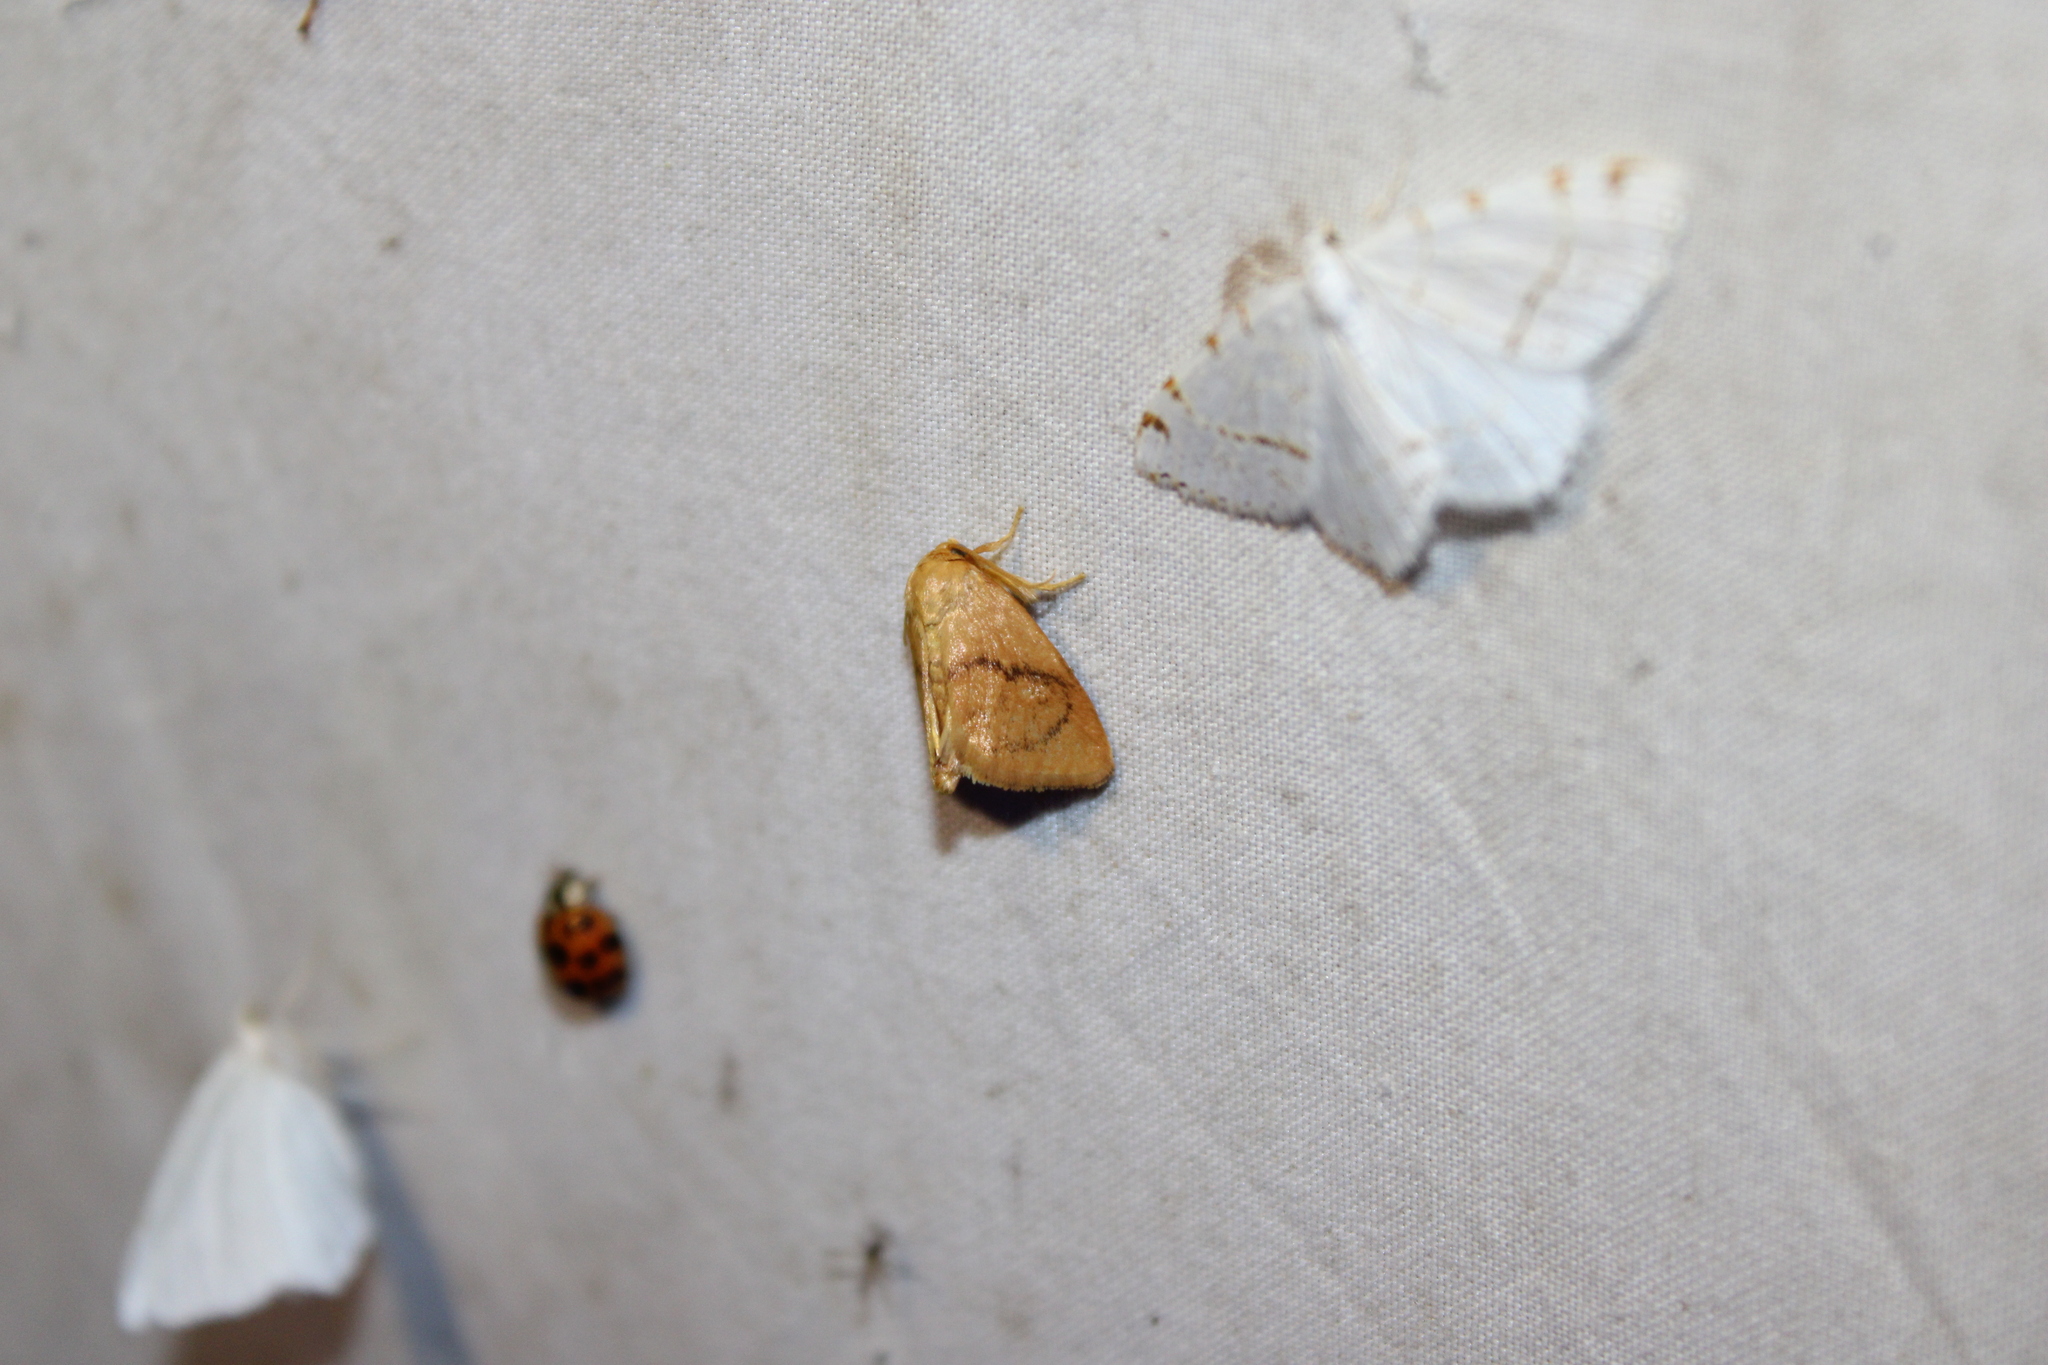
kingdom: Animalia
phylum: Arthropoda
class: Insecta
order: Lepidoptera
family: Limacodidae
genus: Tortricidia
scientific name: Tortricidia flexuosa
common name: Abbreviated button slug moth
